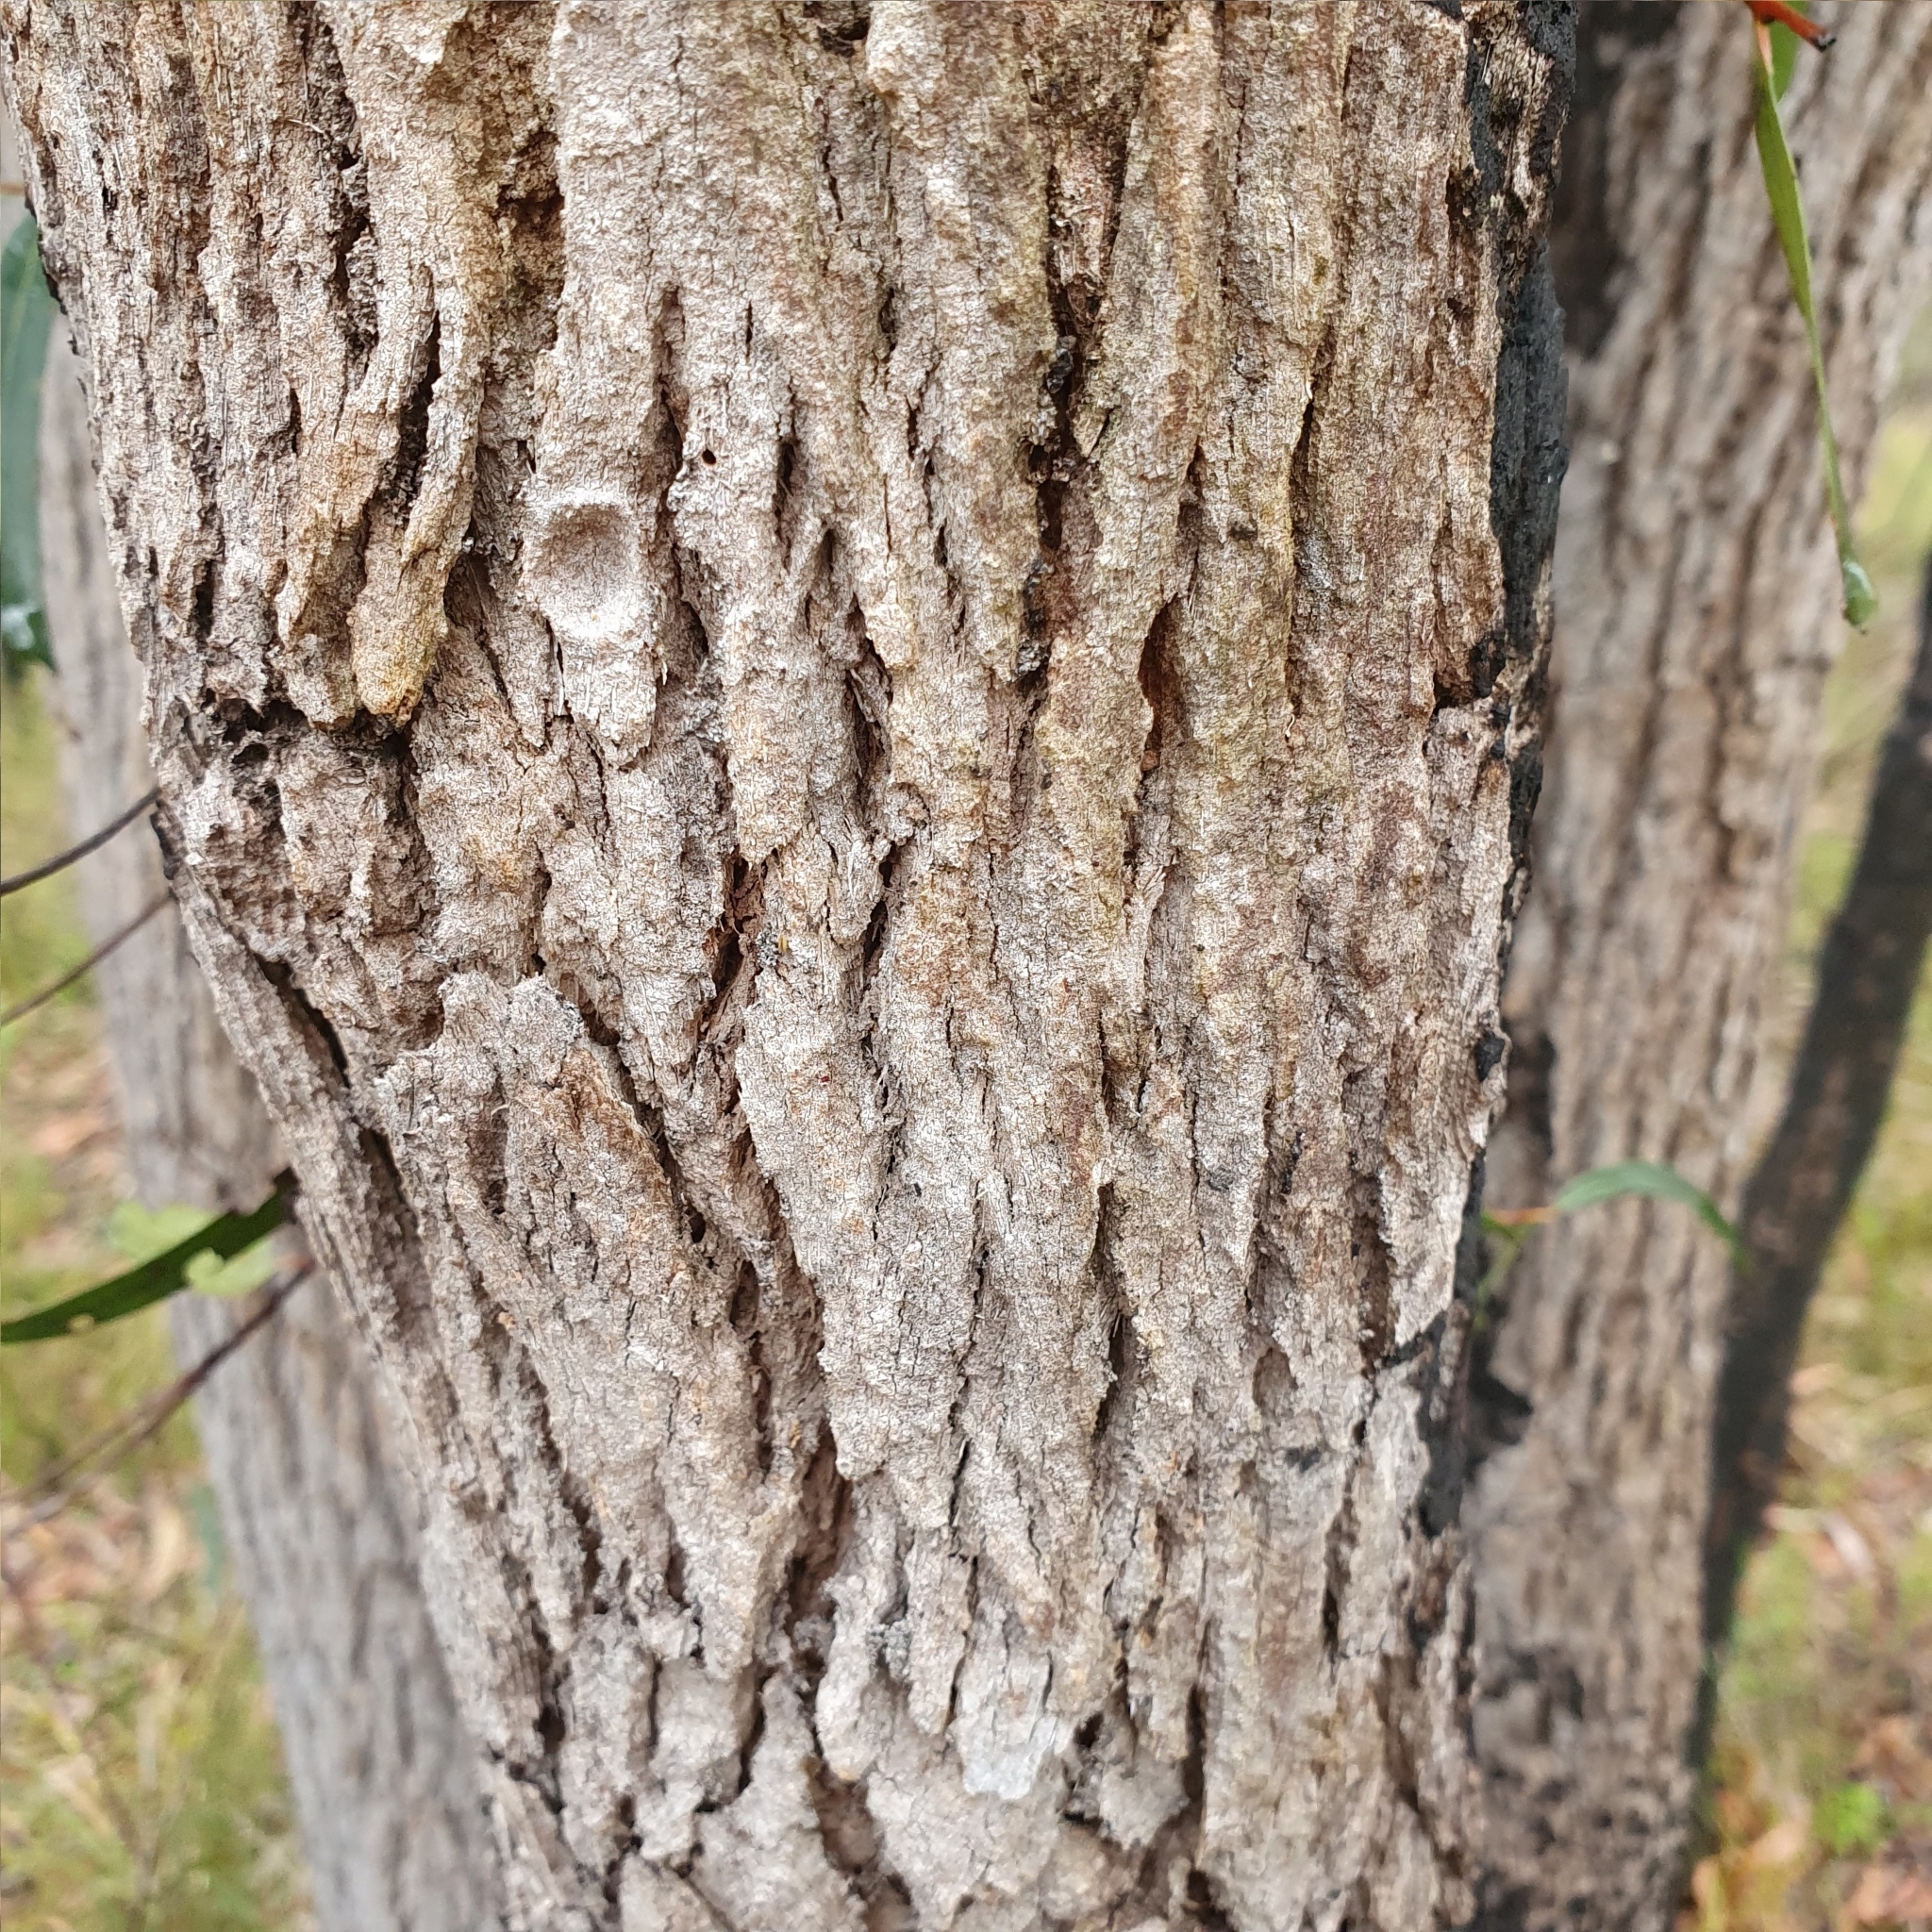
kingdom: Plantae
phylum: Tracheophyta
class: Magnoliopsida
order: Myrtales
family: Myrtaceae
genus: Angophora
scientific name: Angophora bakeri
